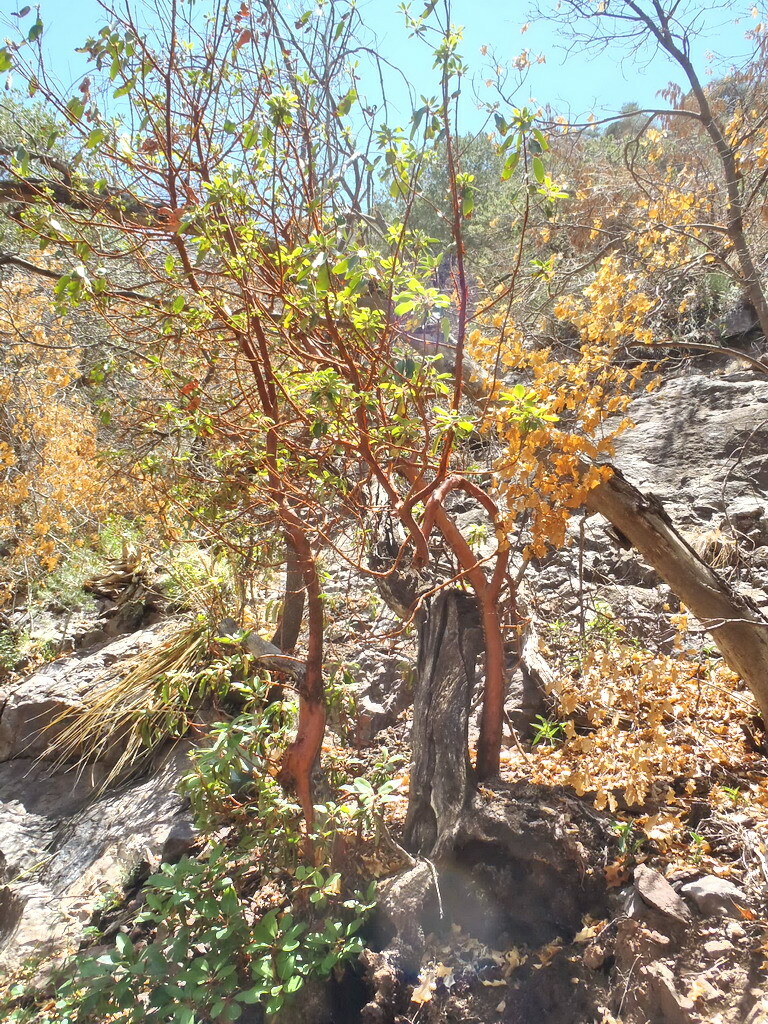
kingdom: Plantae
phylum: Tracheophyta
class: Magnoliopsida
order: Ericales
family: Ericaceae
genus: Arbutus
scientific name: Arbutus xalapensis
